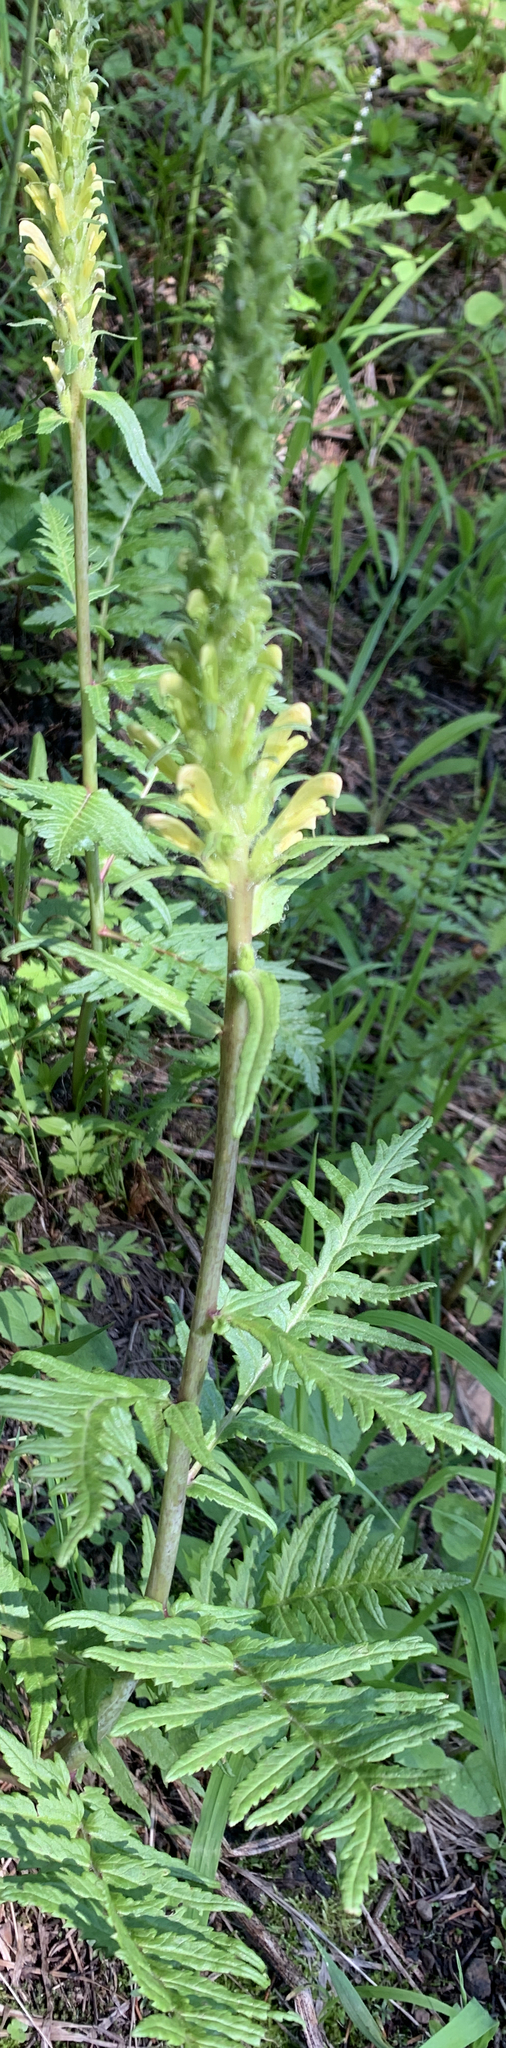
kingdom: Plantae
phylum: Tracheophyta
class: Magnoliopsida
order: Lamiales
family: Orobanchaceae
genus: Pedicularis
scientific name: Pedicularis bracteosa
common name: Bracted lousewort
